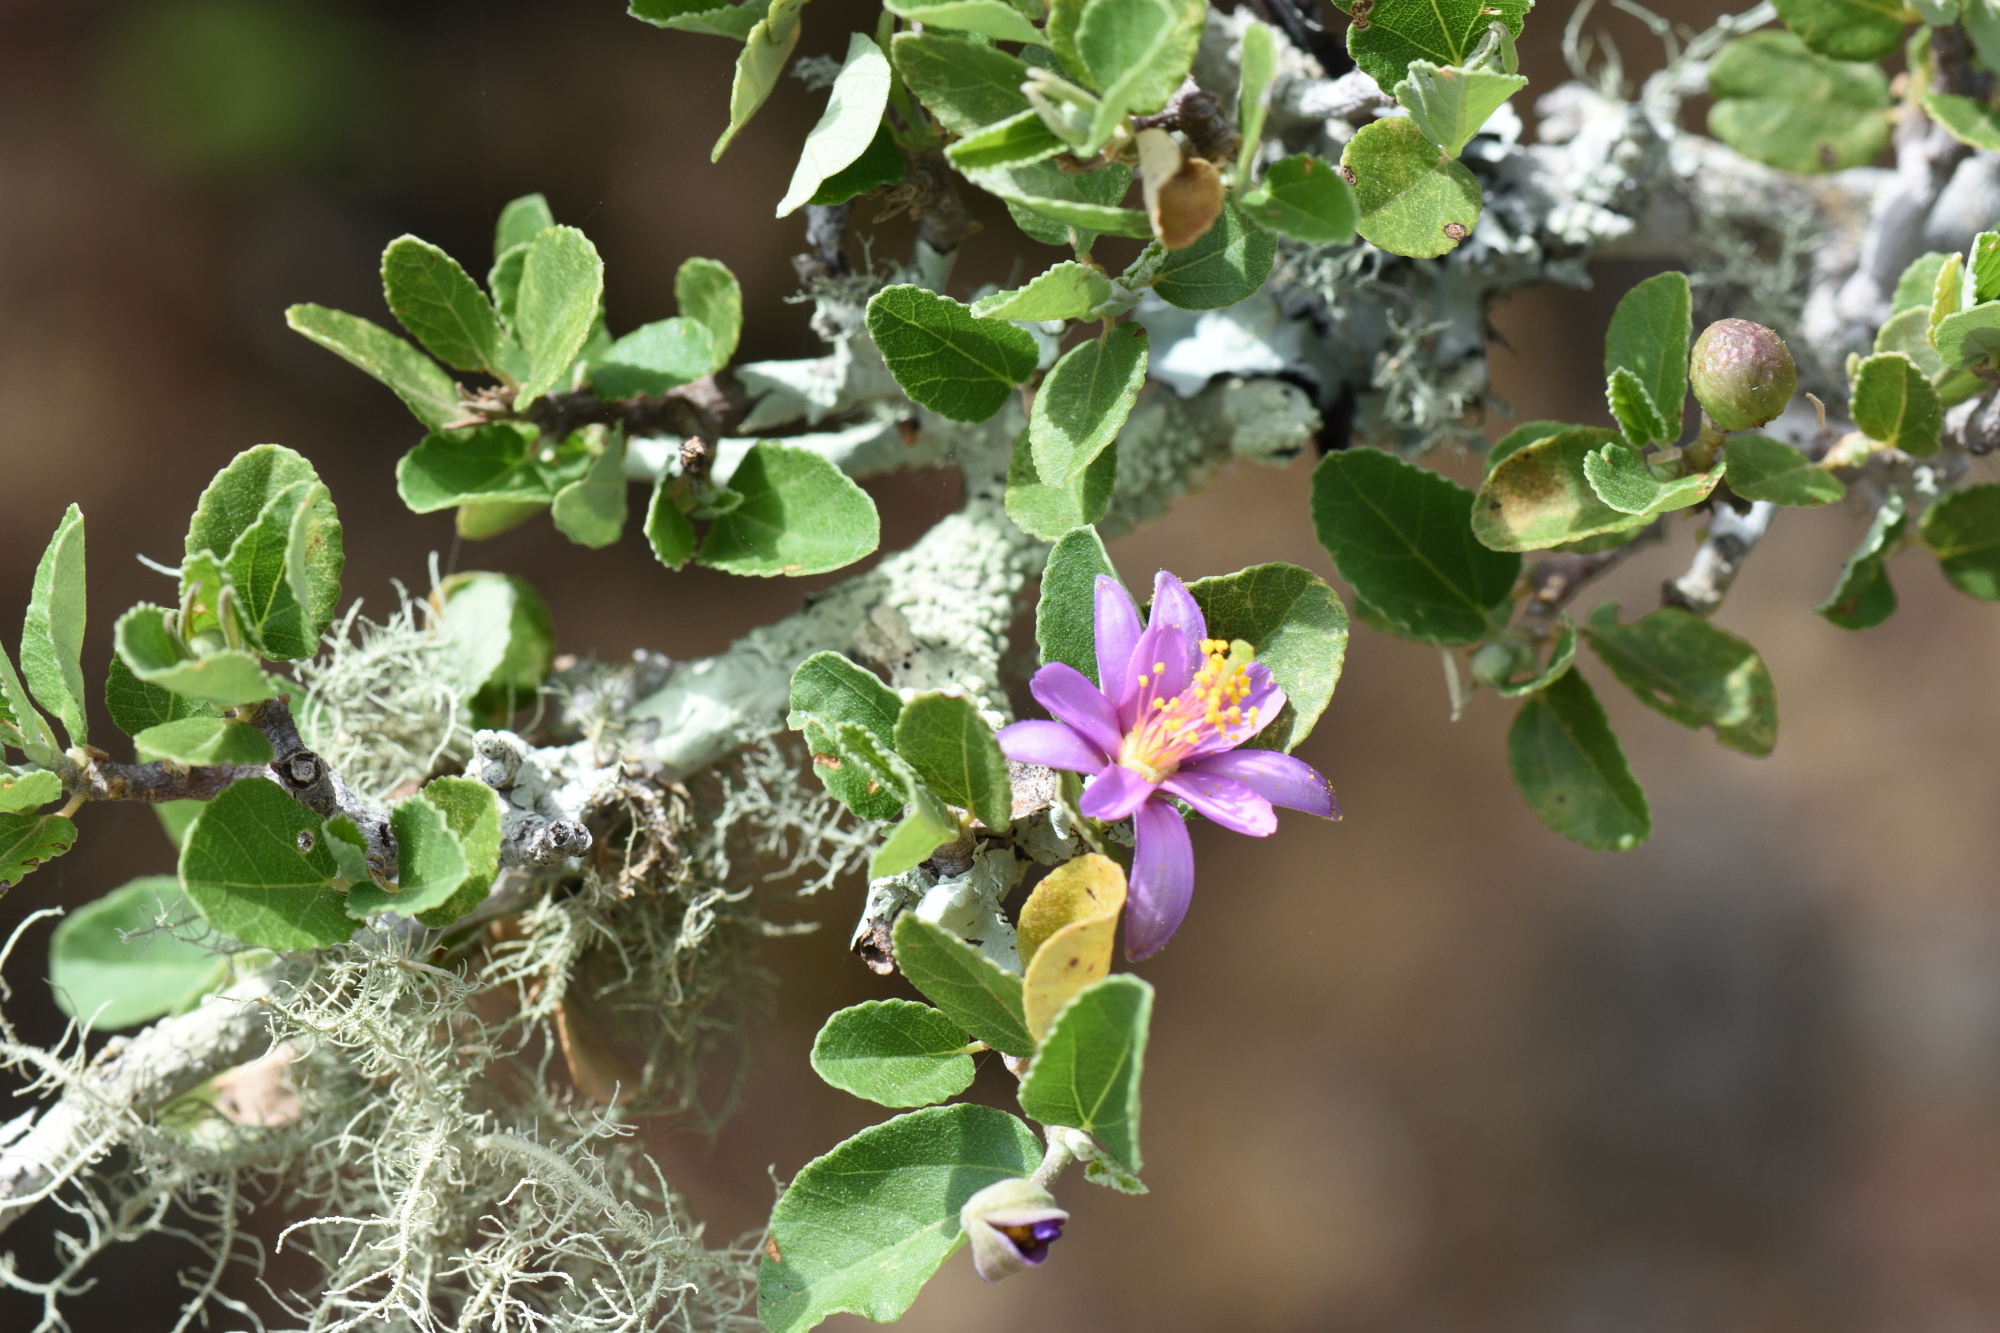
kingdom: Plantae
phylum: Tracheophyta
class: Magnoliopsida
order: Malvales
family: Malvaceae
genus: Grewia
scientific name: Grewia robusta
